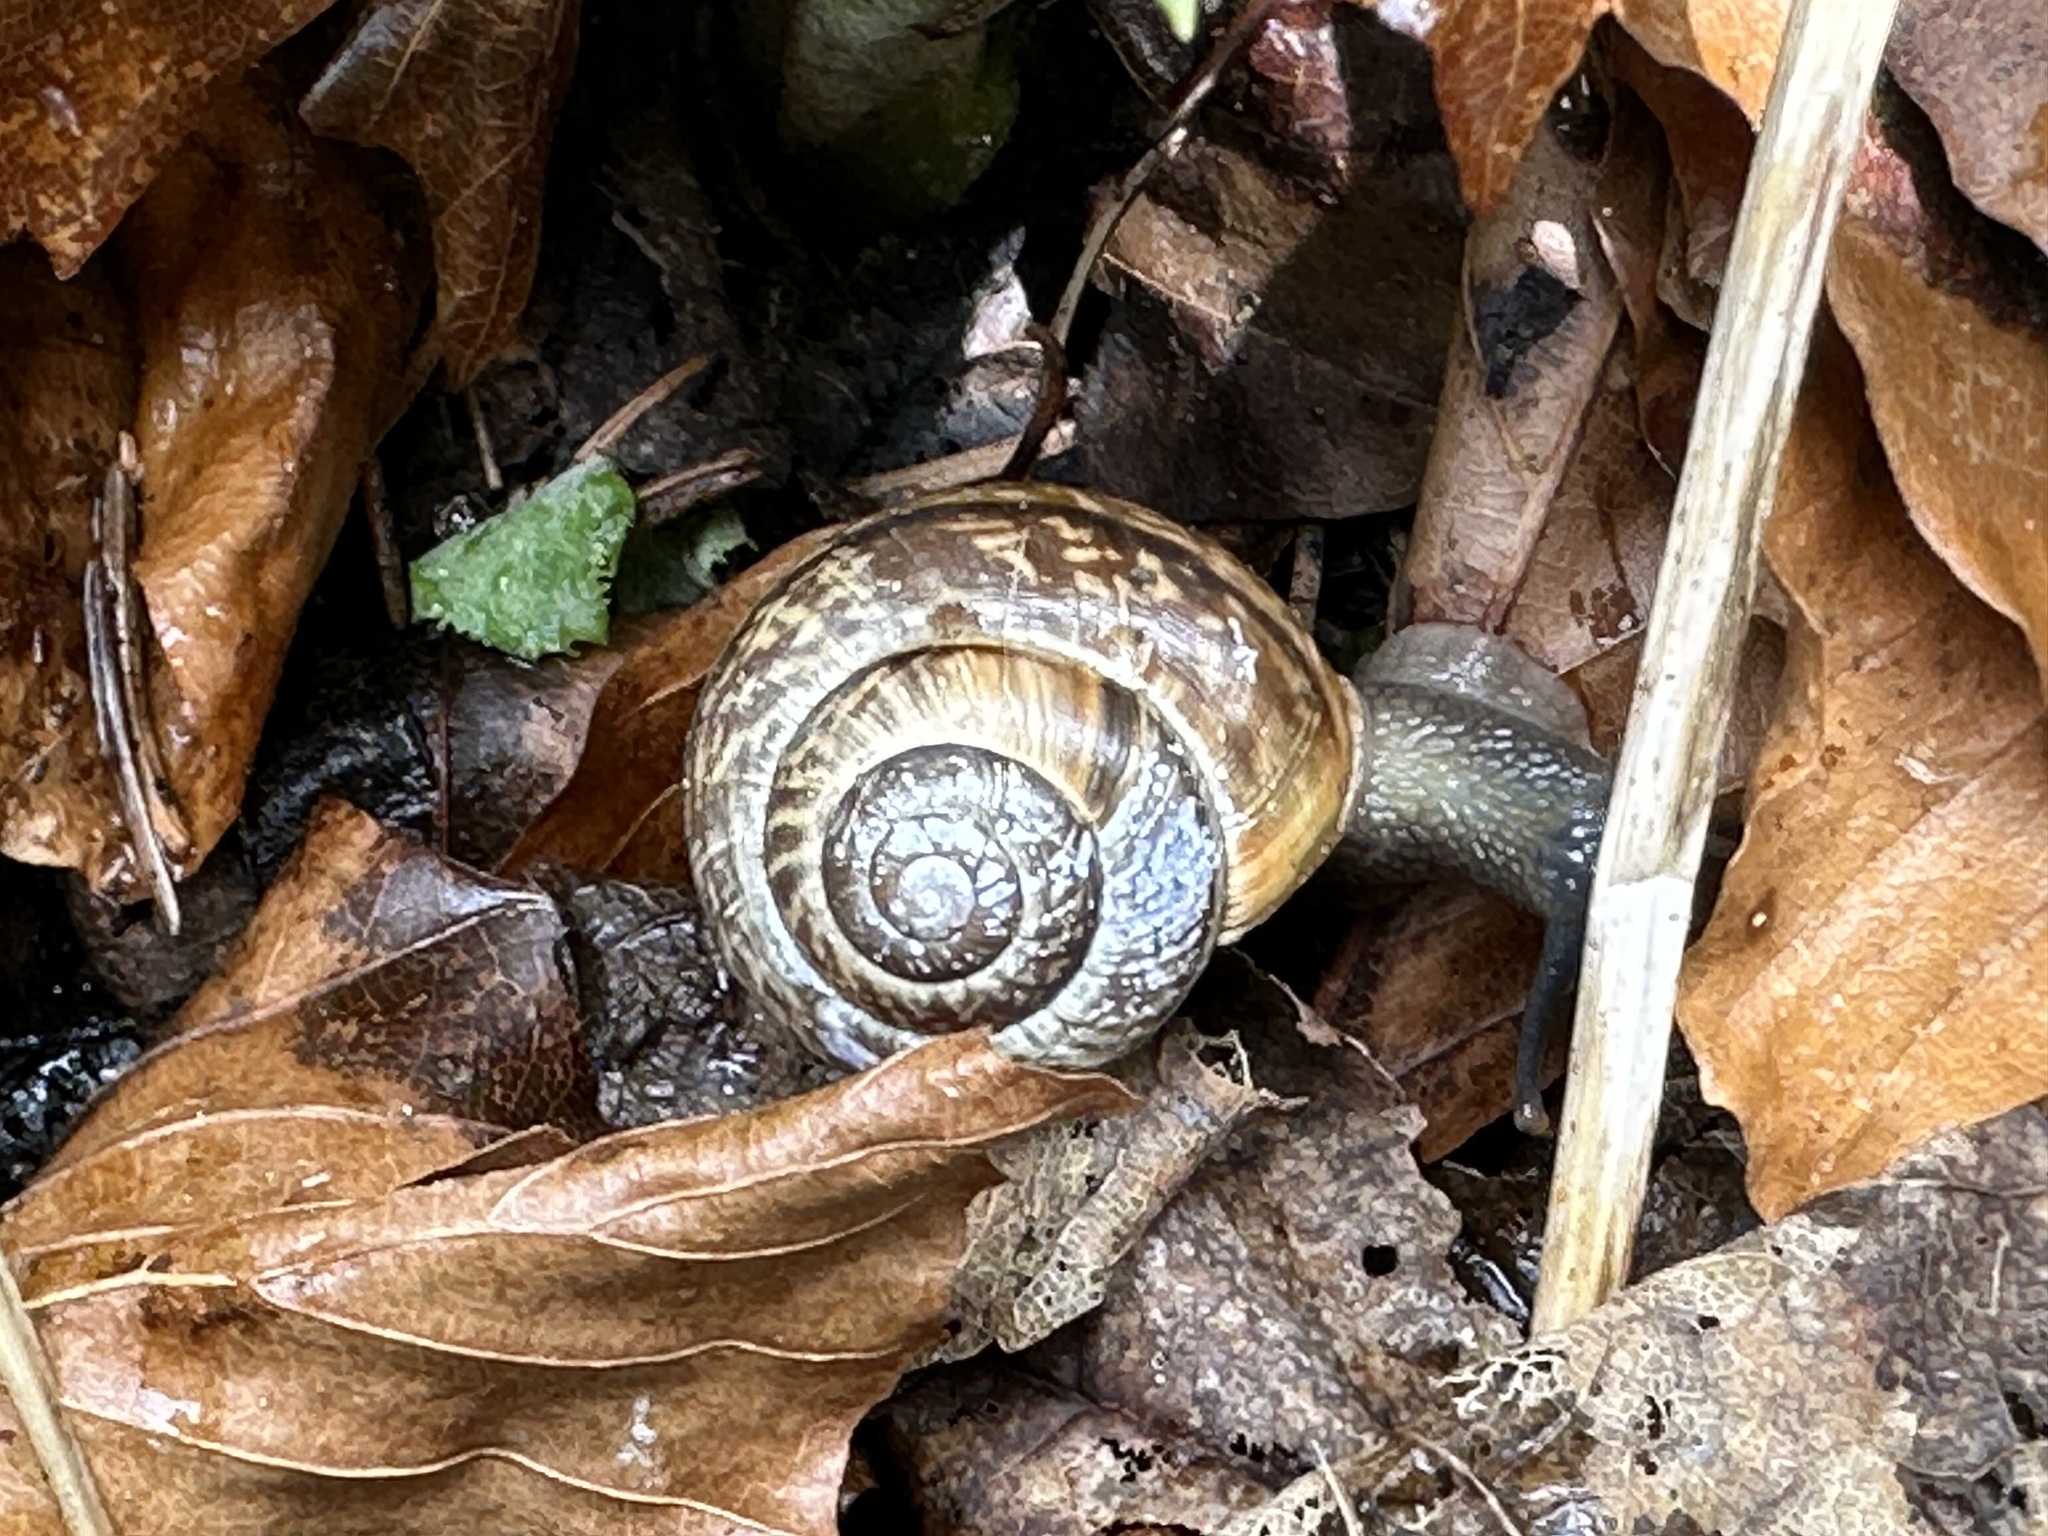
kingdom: Animalia
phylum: Mollusca
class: Gastropoda
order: Stylommatophora
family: Helicidae
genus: Arianta
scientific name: Arianta arbustorum
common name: Copse snail
